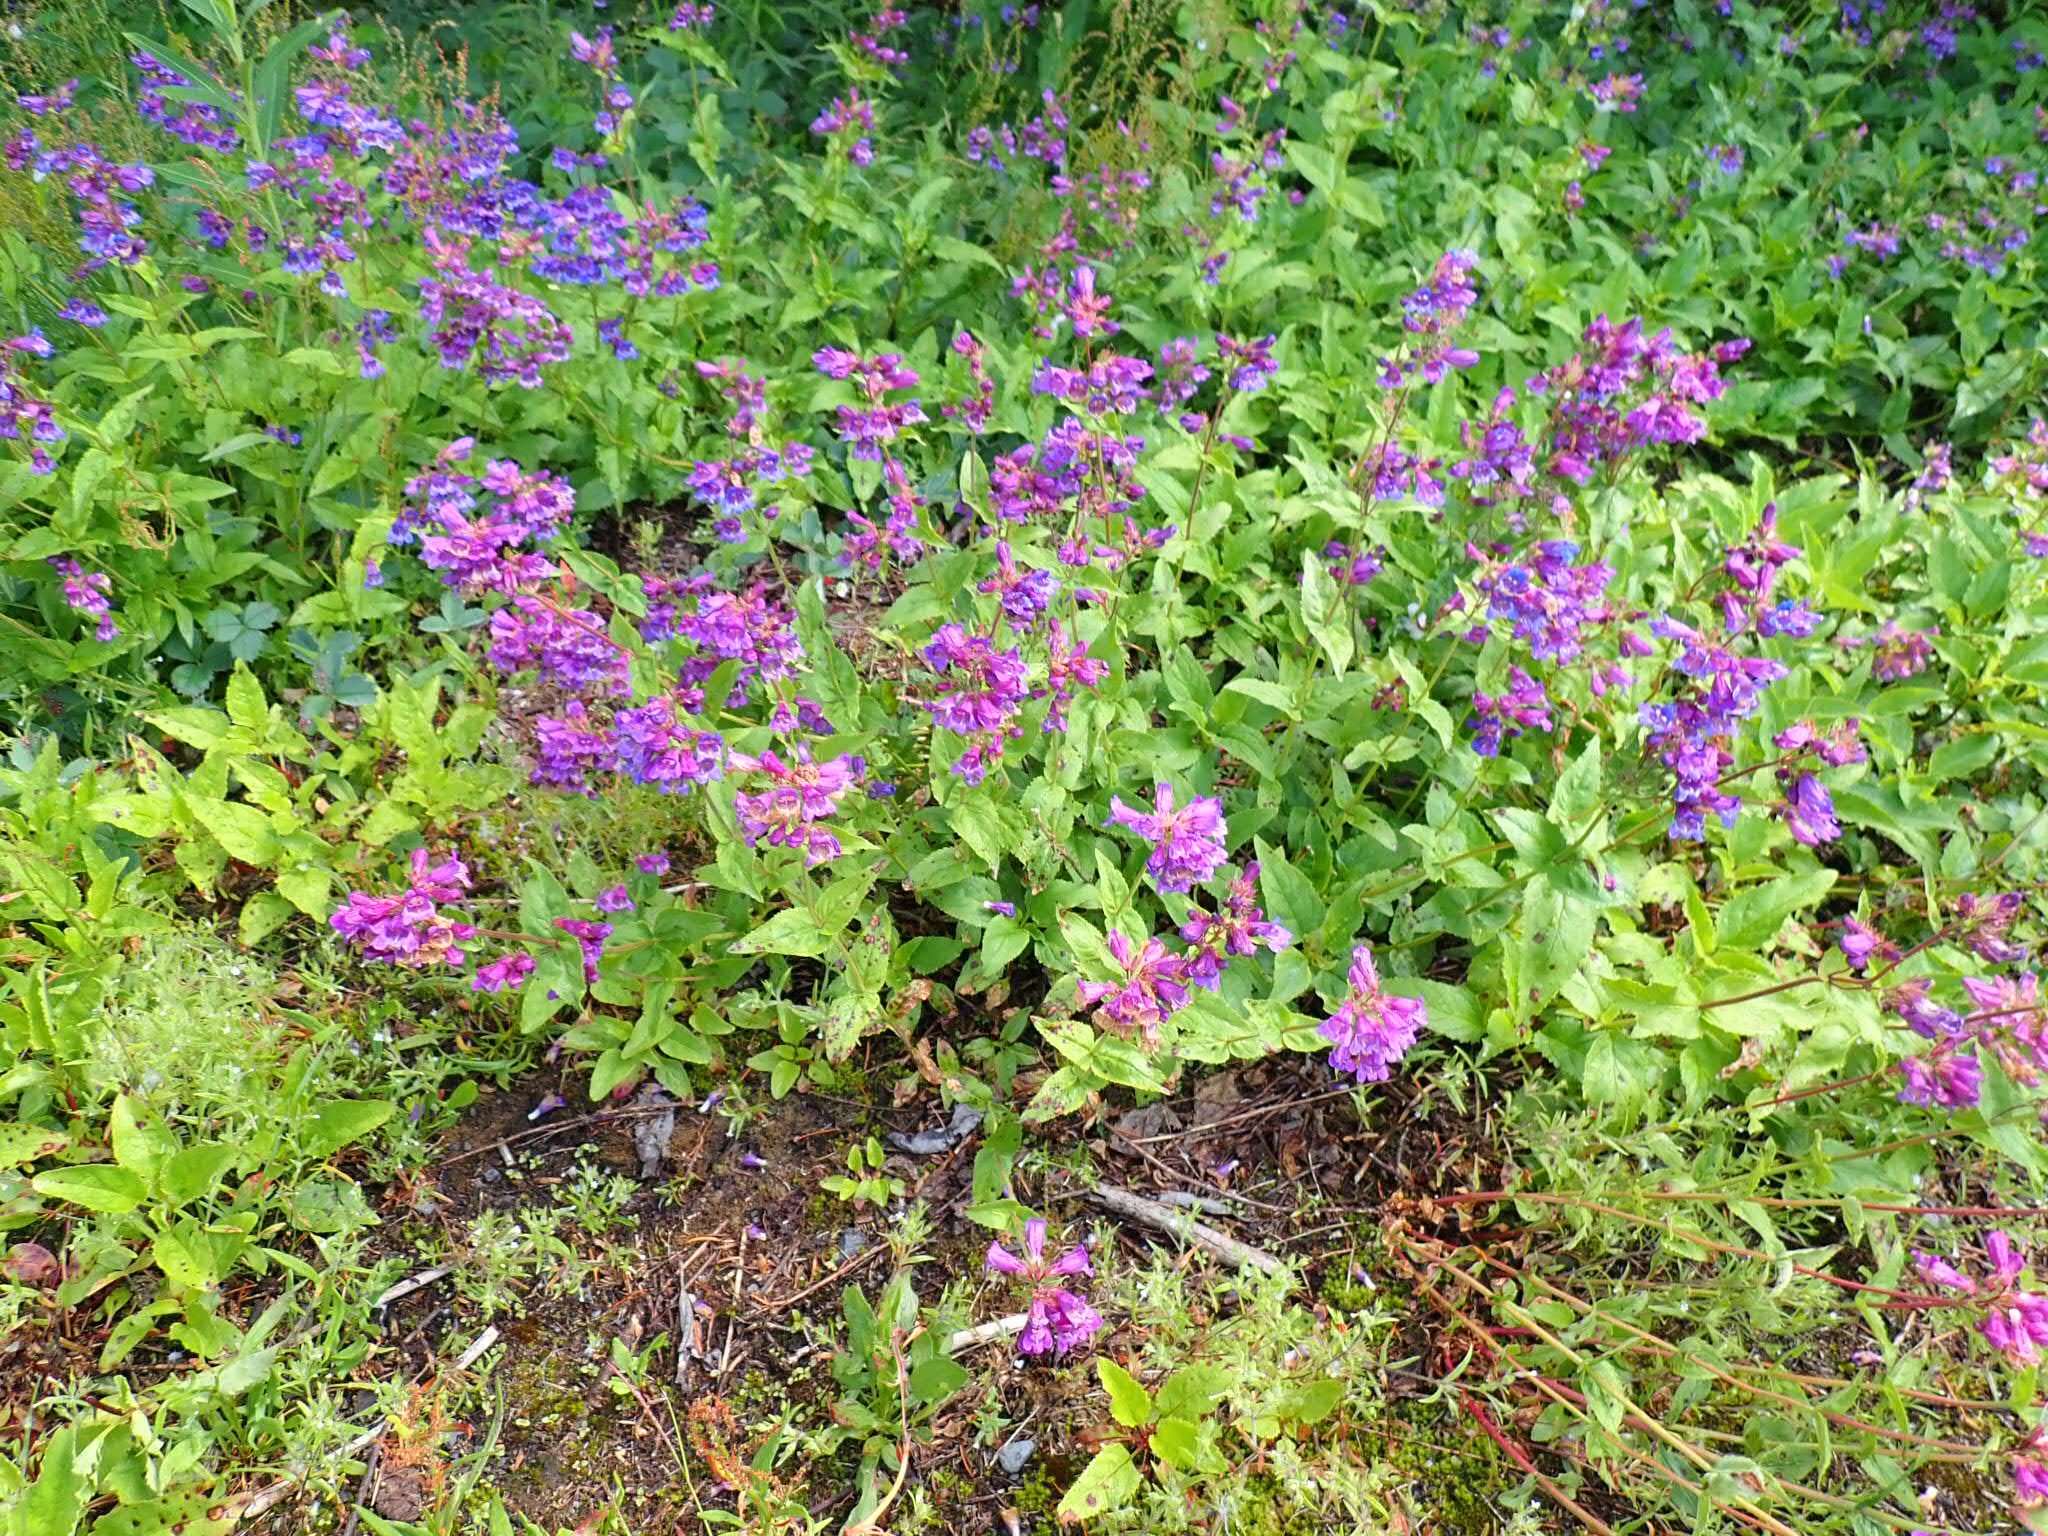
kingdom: Plantae
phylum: Tracheophyta
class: Magnoliopsida
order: Lamiales
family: Plantaginaceae
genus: Penstemon
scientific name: Penstemon serrulatus
